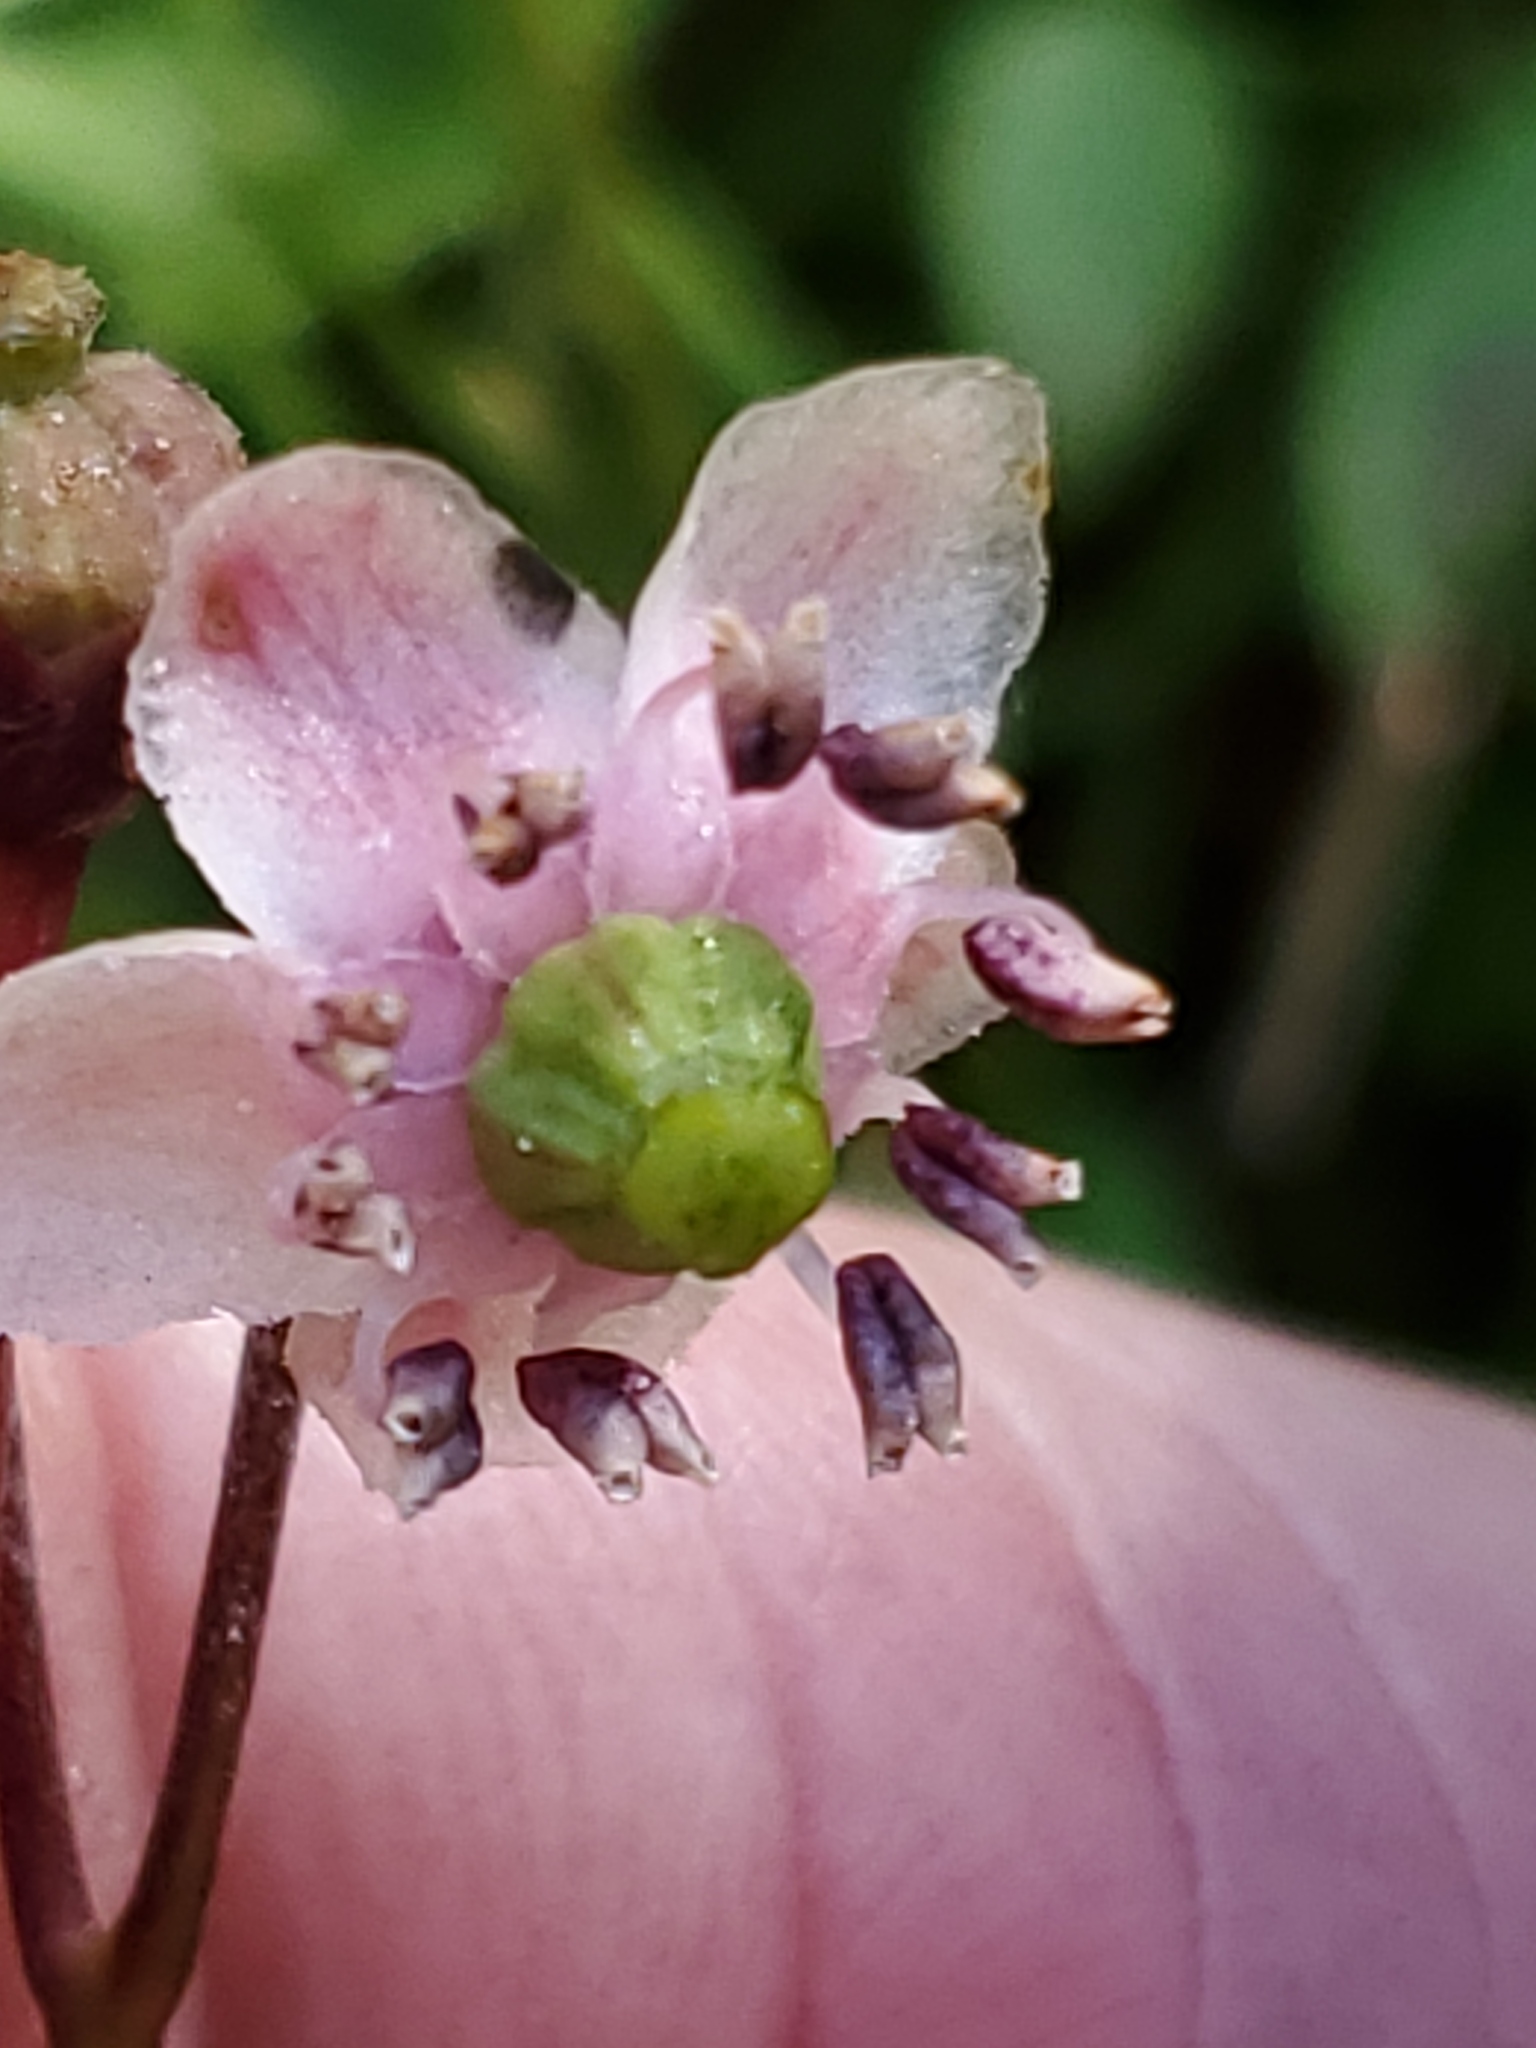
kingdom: Plantae
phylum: Tracheophyta
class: Magnoliopsida
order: Ericales
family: Ericaceae
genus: Chimaphila
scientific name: Chimaphila umbellata
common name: Pipsissewa
